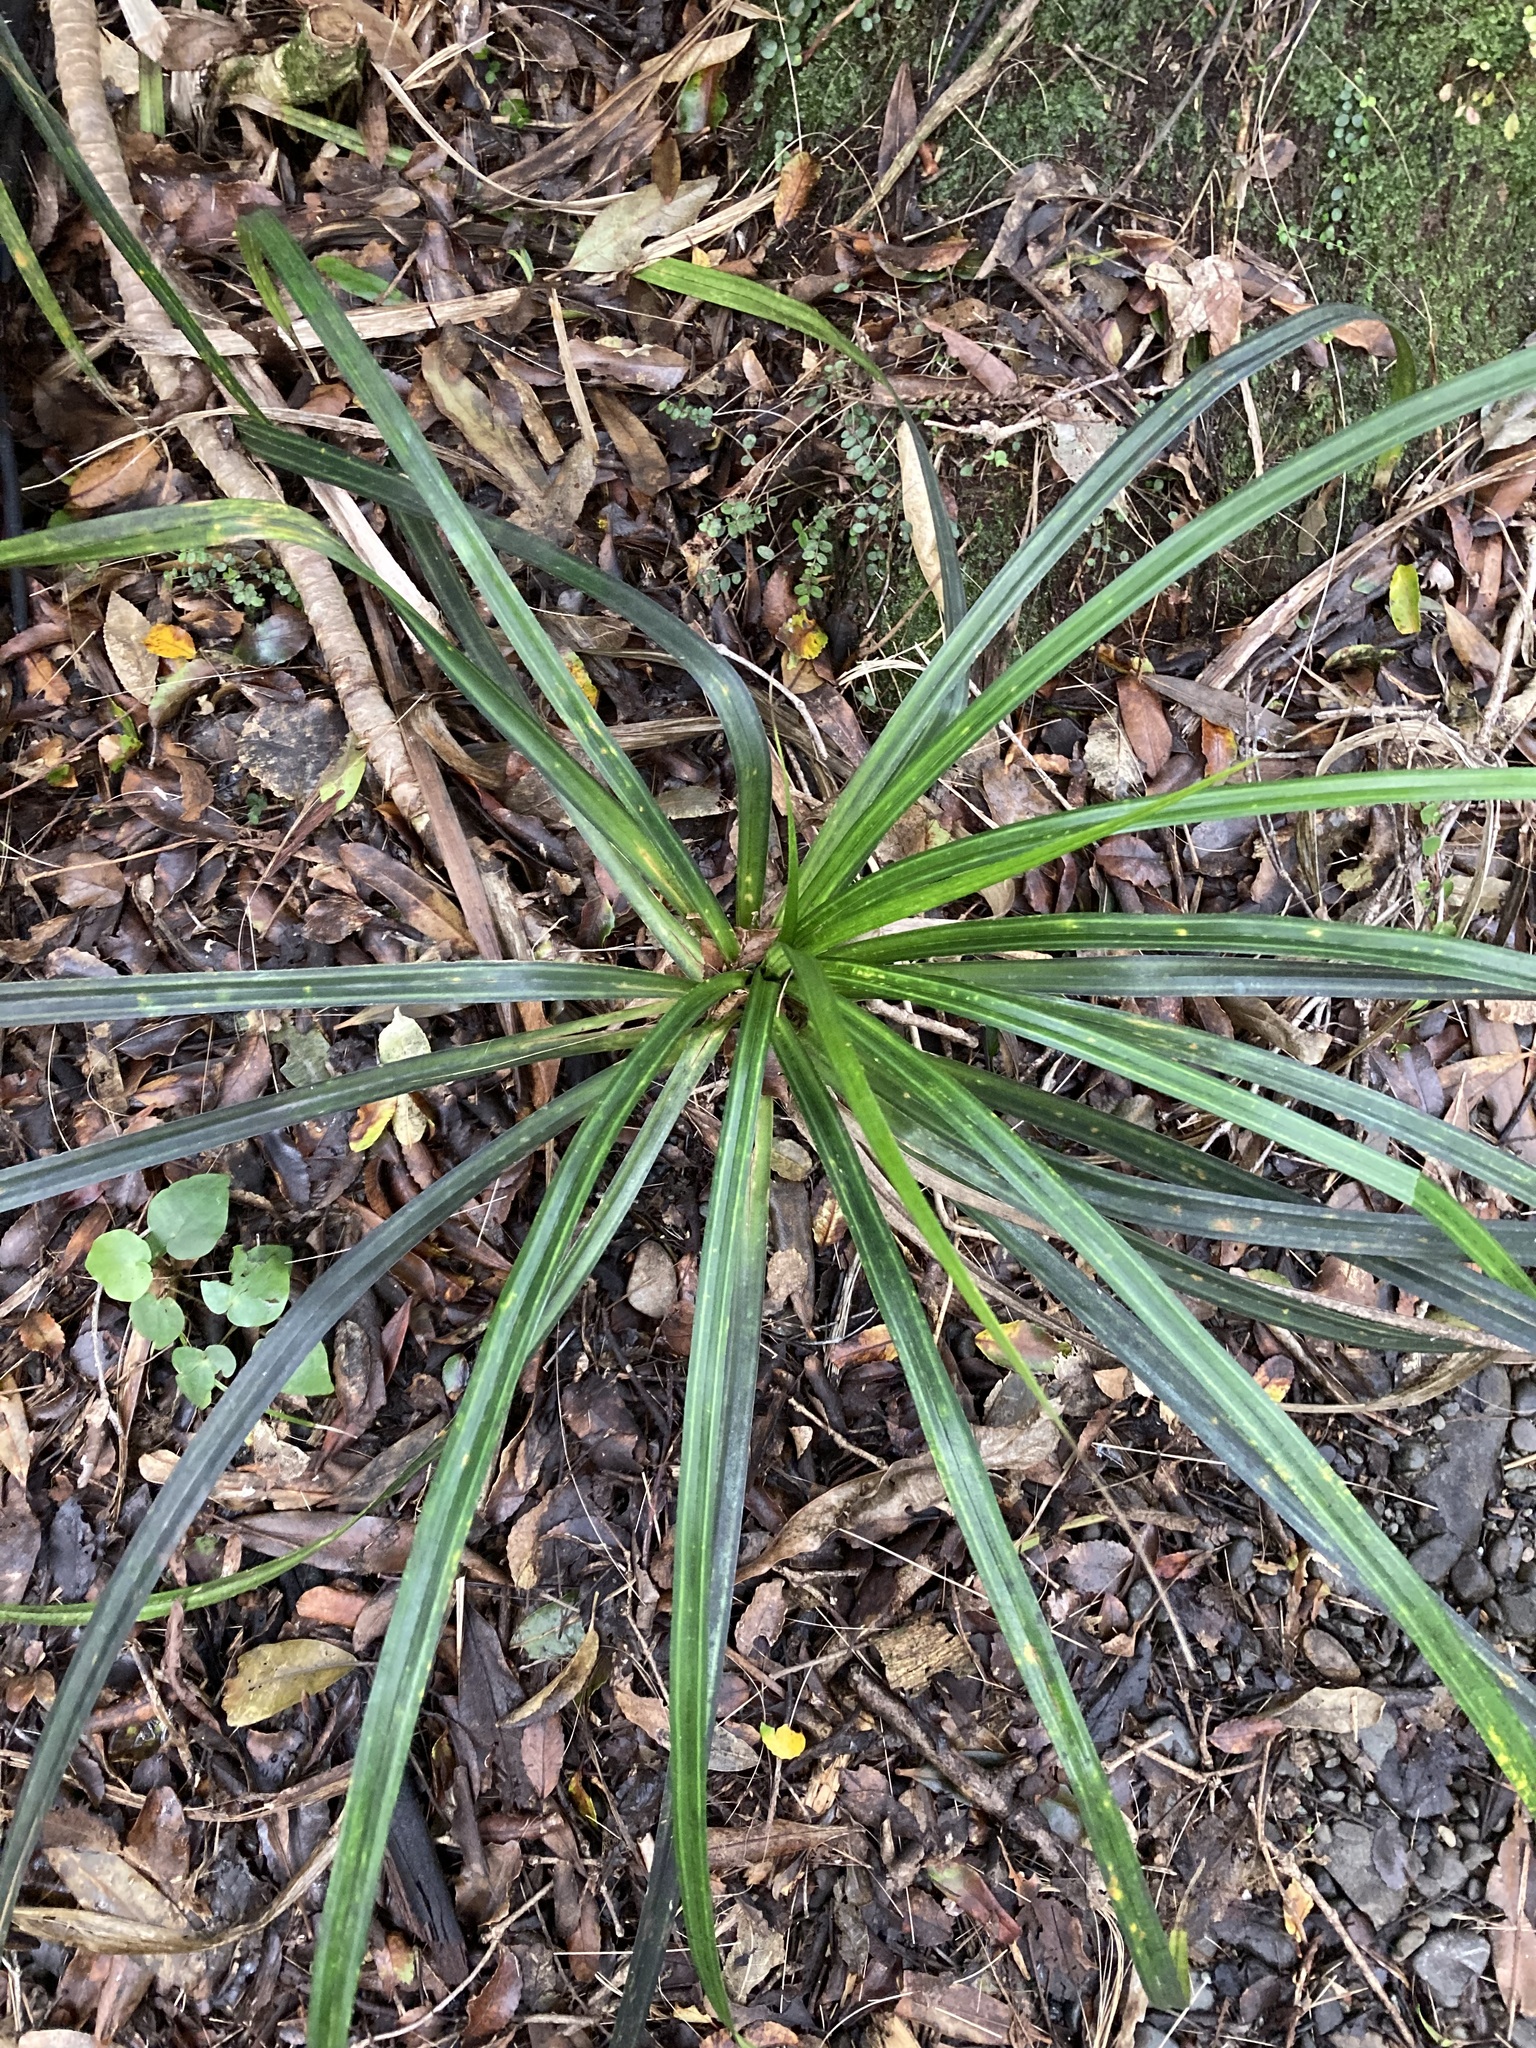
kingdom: Plantae
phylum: Tracheophyta
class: Liliopsida
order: Pandanales
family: Pandanaceae
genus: Freycinetia
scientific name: Freycinetia banksii
